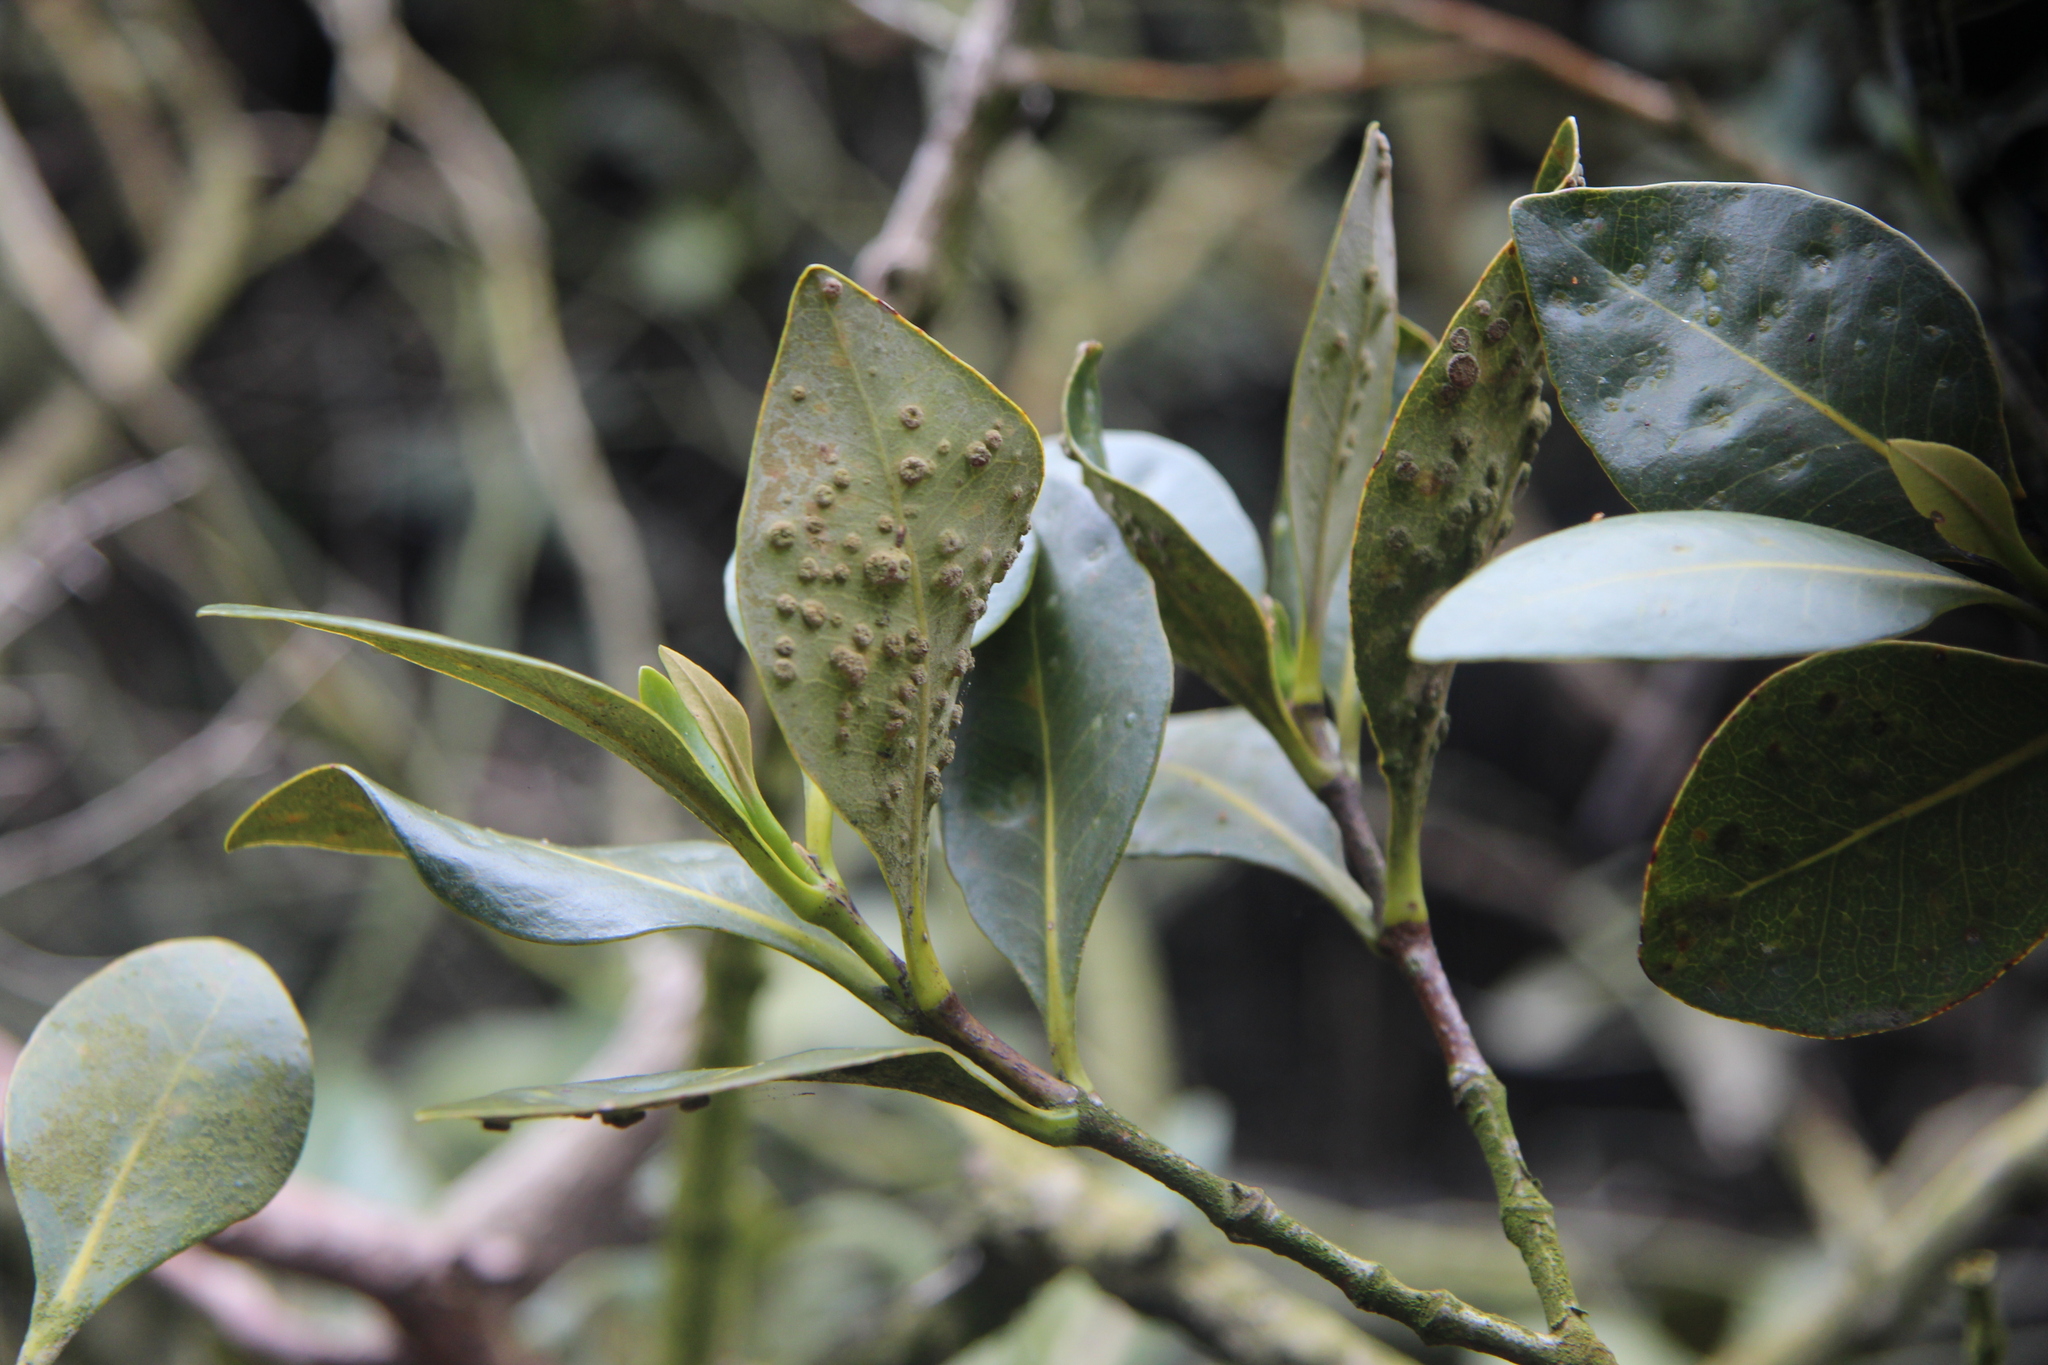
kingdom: Animalia
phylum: Arthropoda
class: Arachnida
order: Trombidiformes
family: Eriophyidae
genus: Acalitus
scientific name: Acalitus
